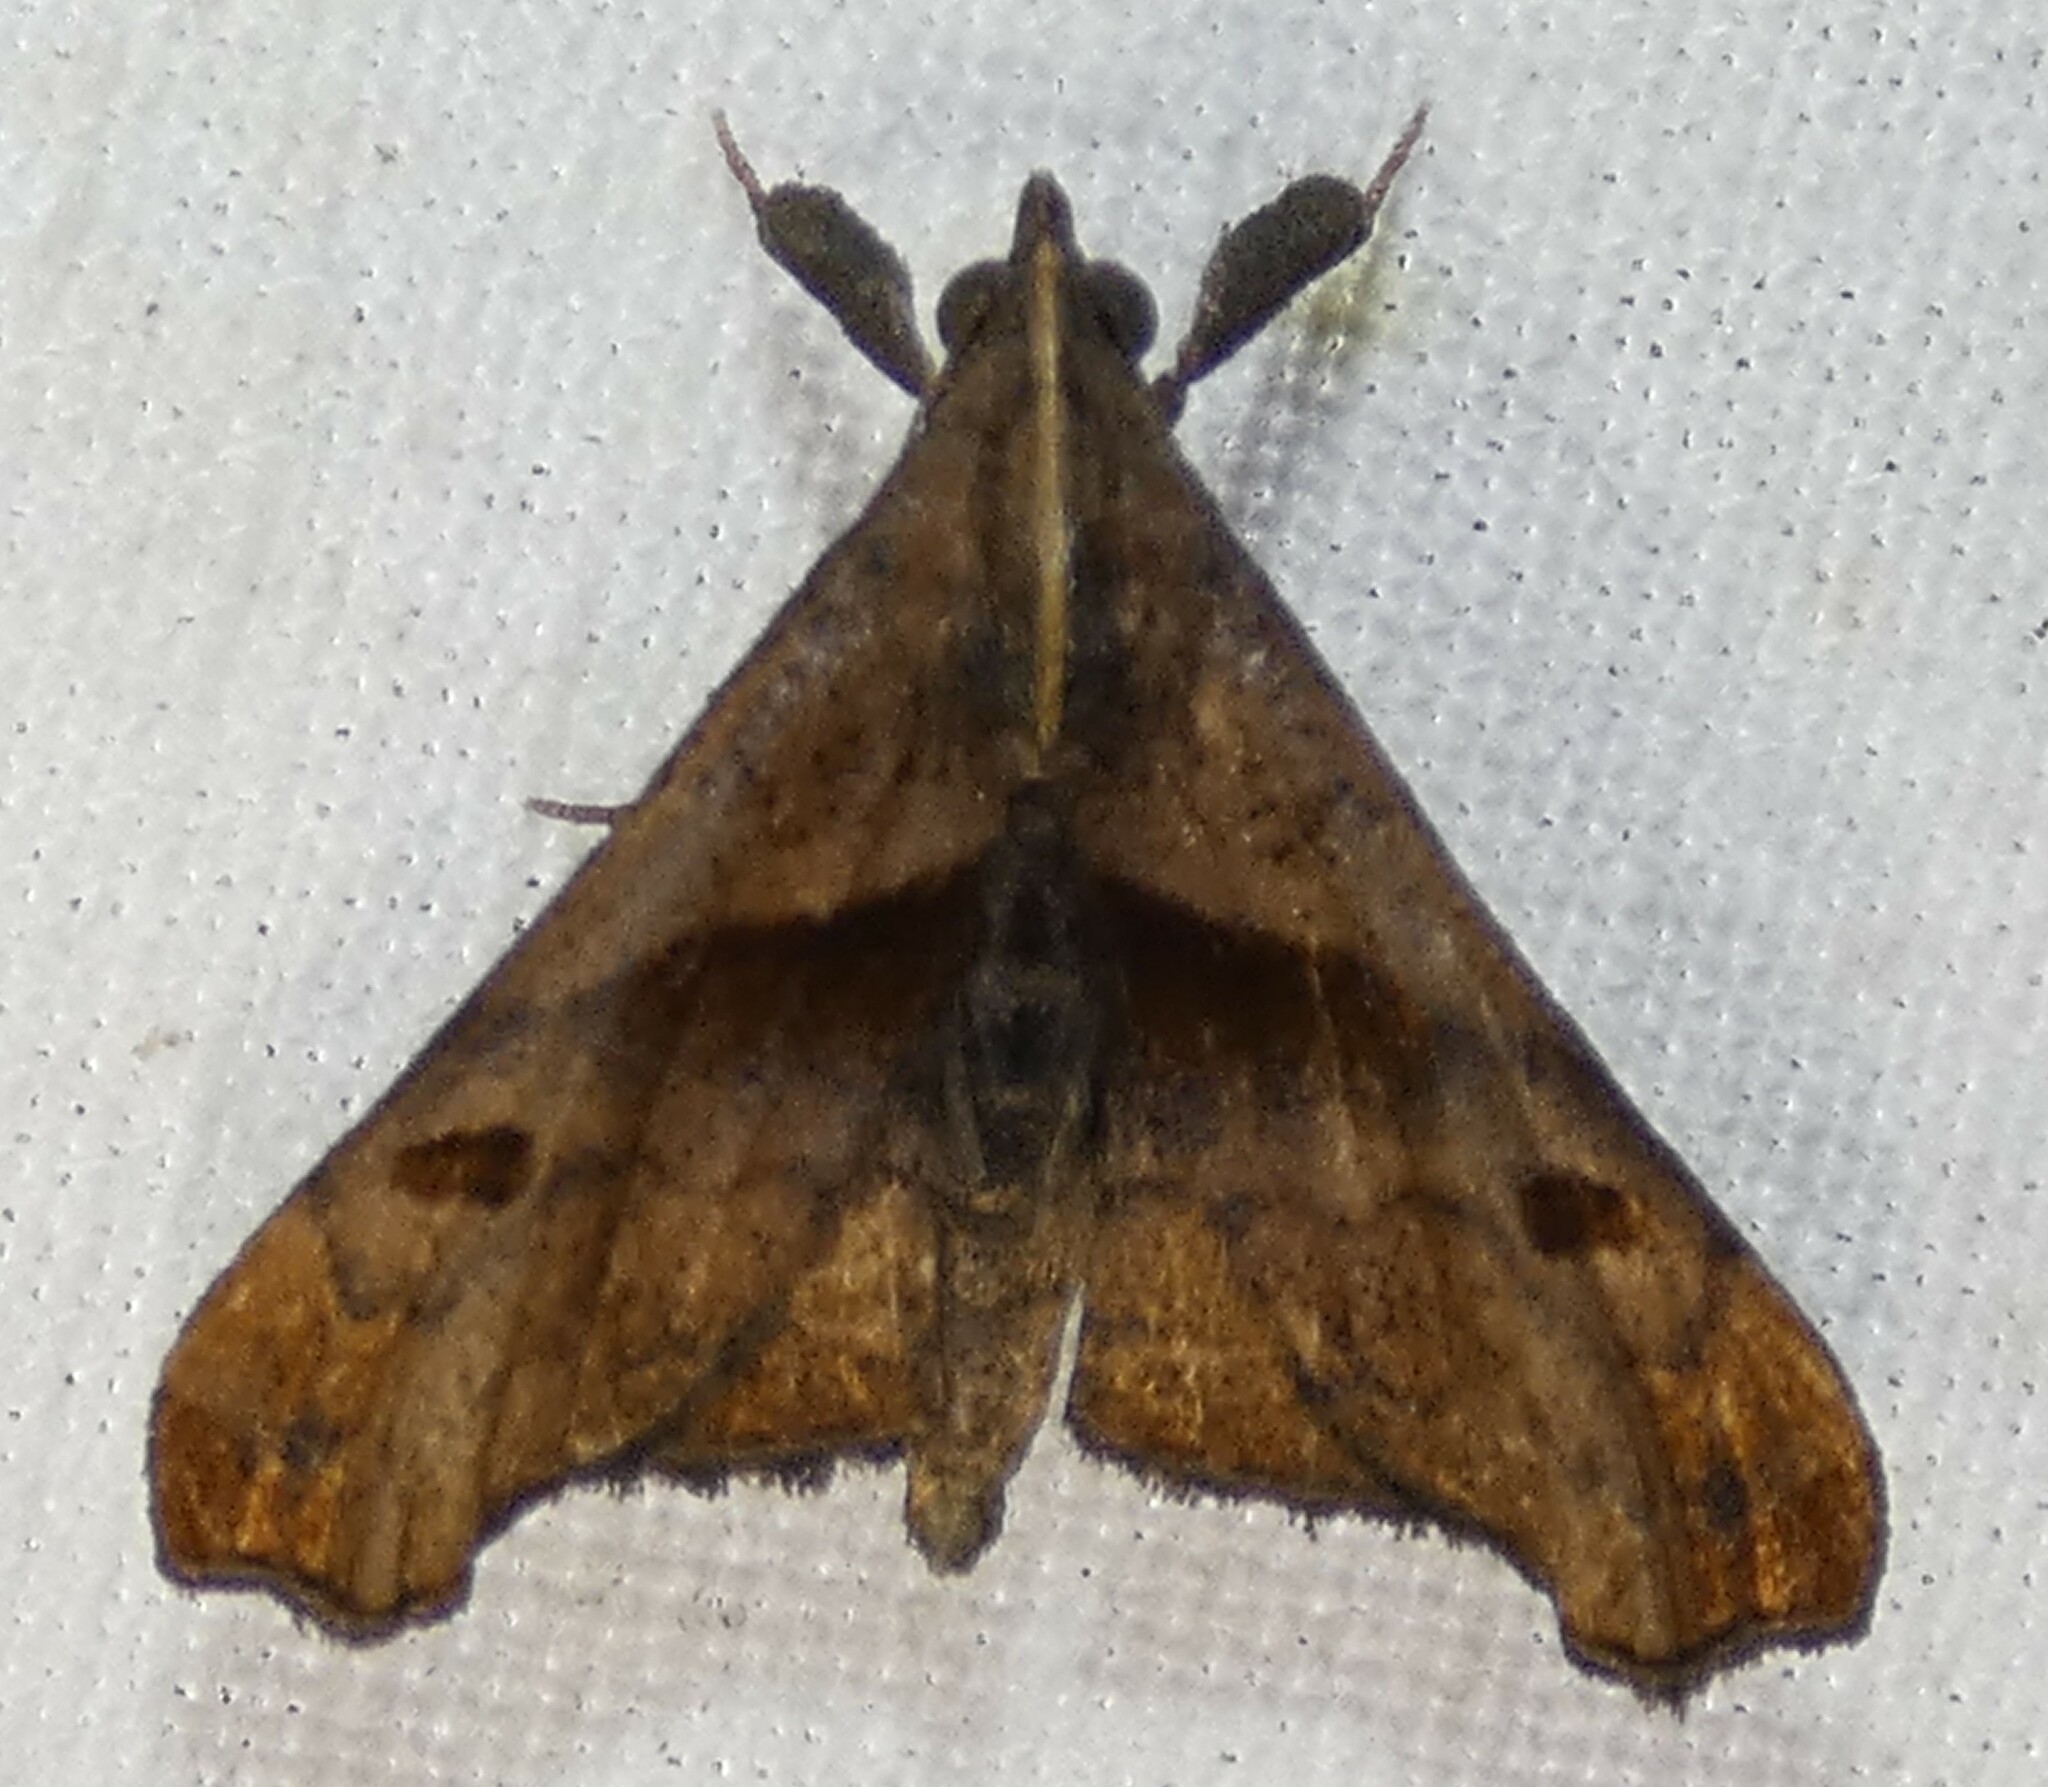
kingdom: Animalia
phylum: Arthropoda
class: Insecta
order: Lepidoptera
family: Erebidae
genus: Palthis
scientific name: Palthis angulalis
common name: Dark-spotted palthis moth
